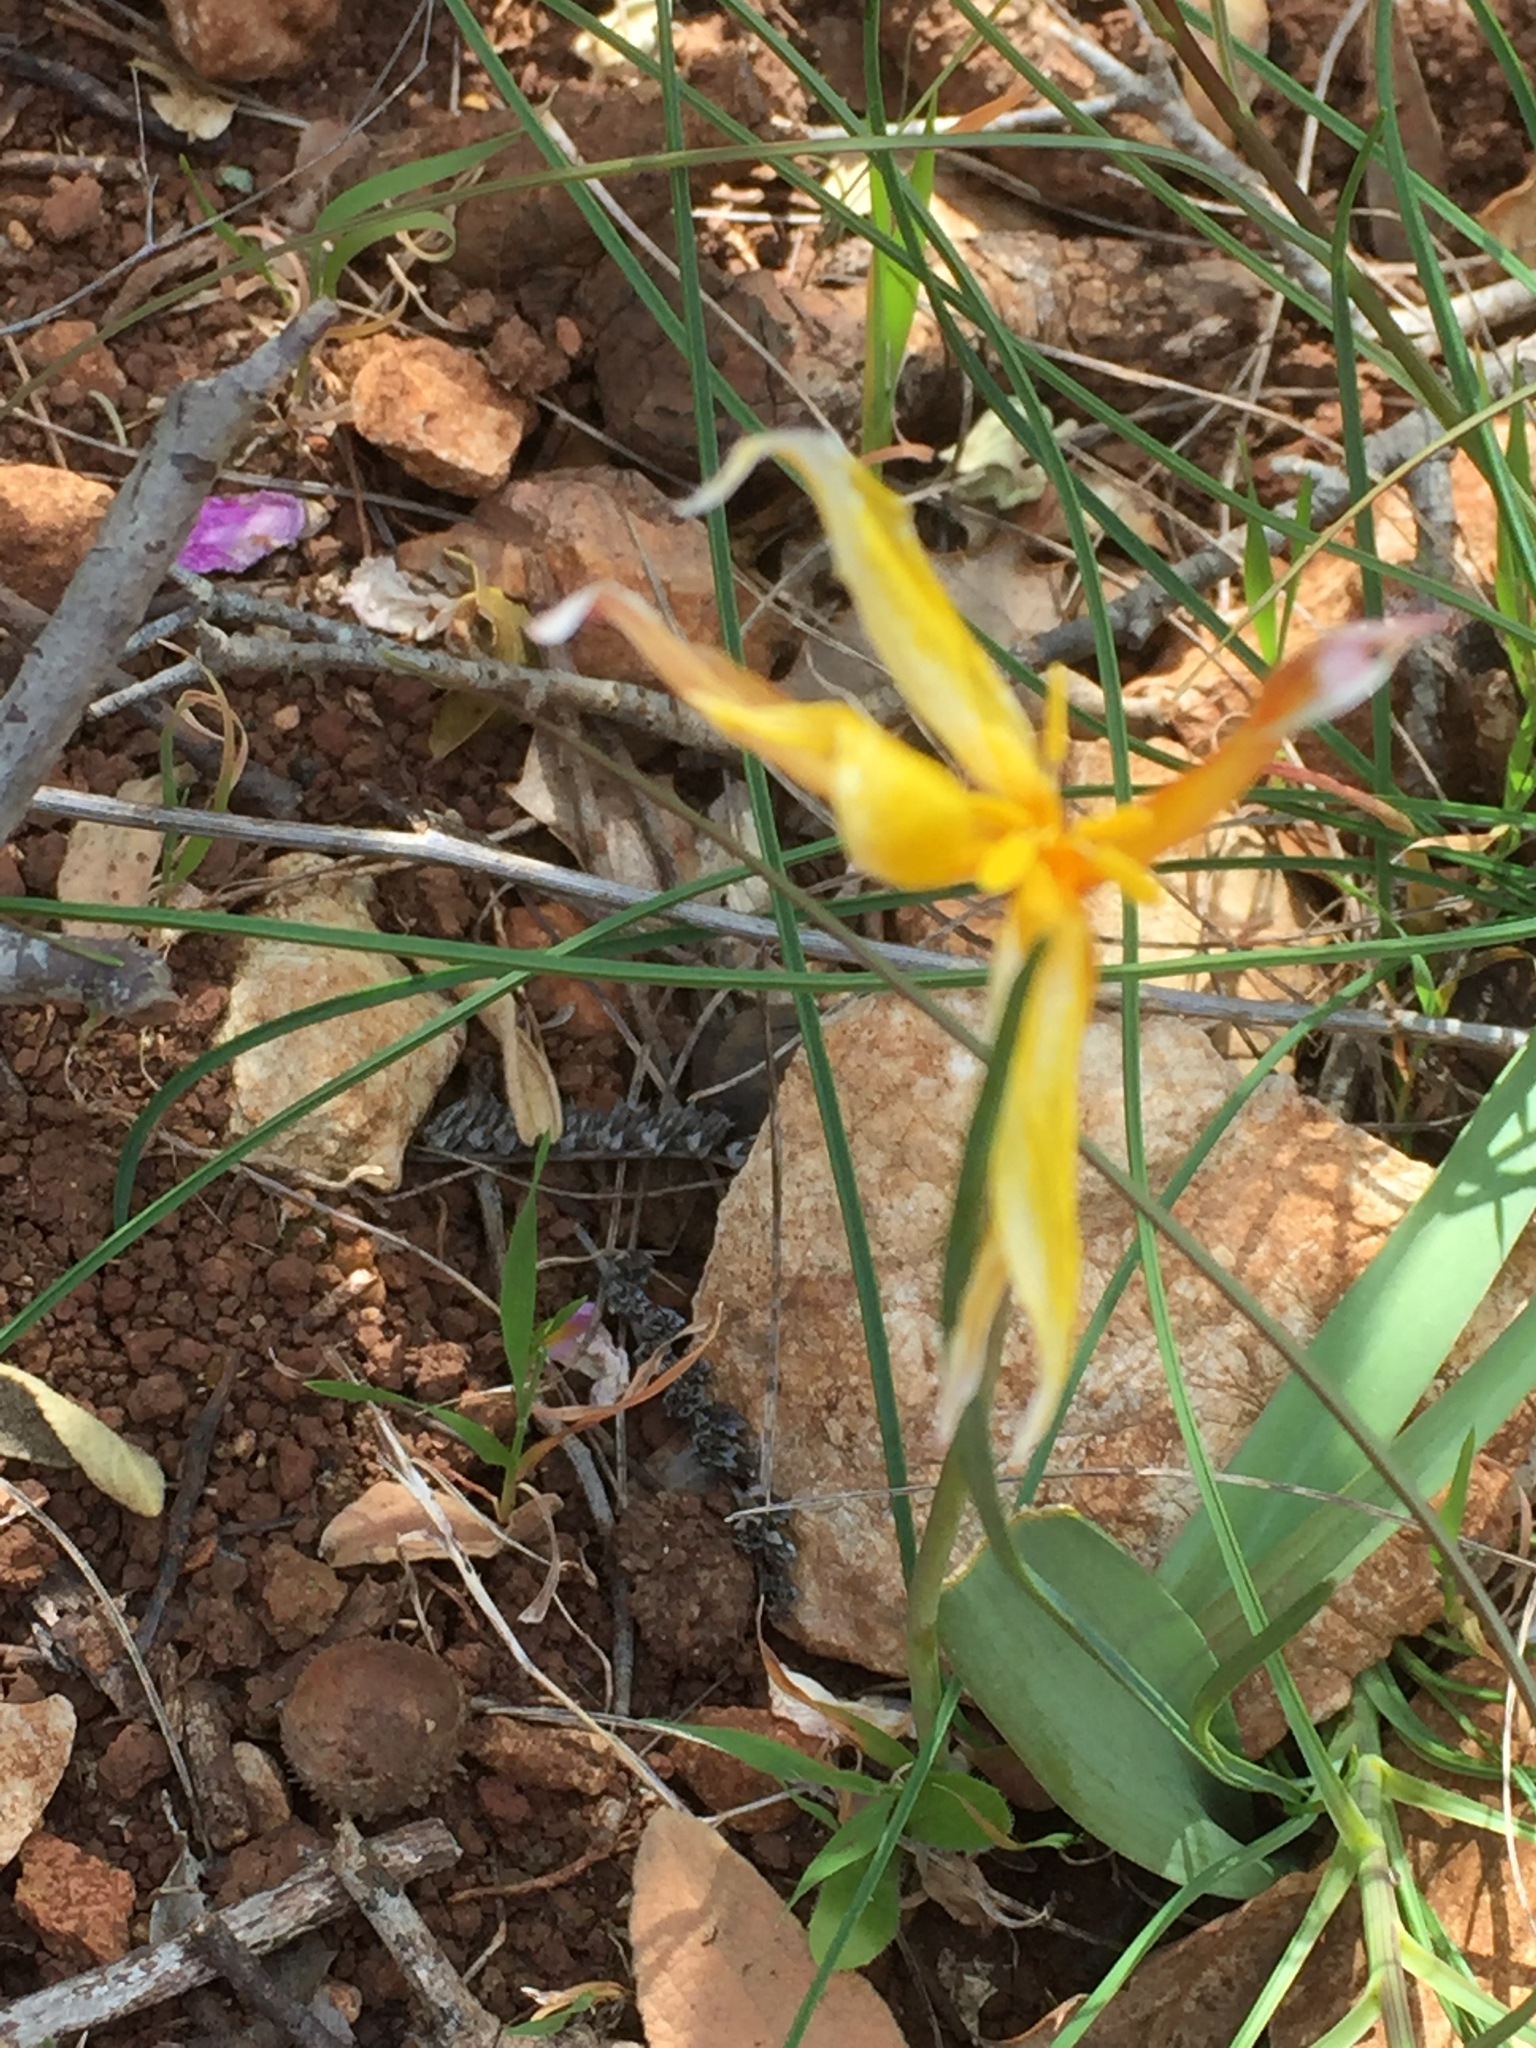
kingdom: Plantae
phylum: Tracheophyta
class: Liliopsida
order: Liliales
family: Liliaceae
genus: Tulipa
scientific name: Tulipa sylvestris
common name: Wild tulip
